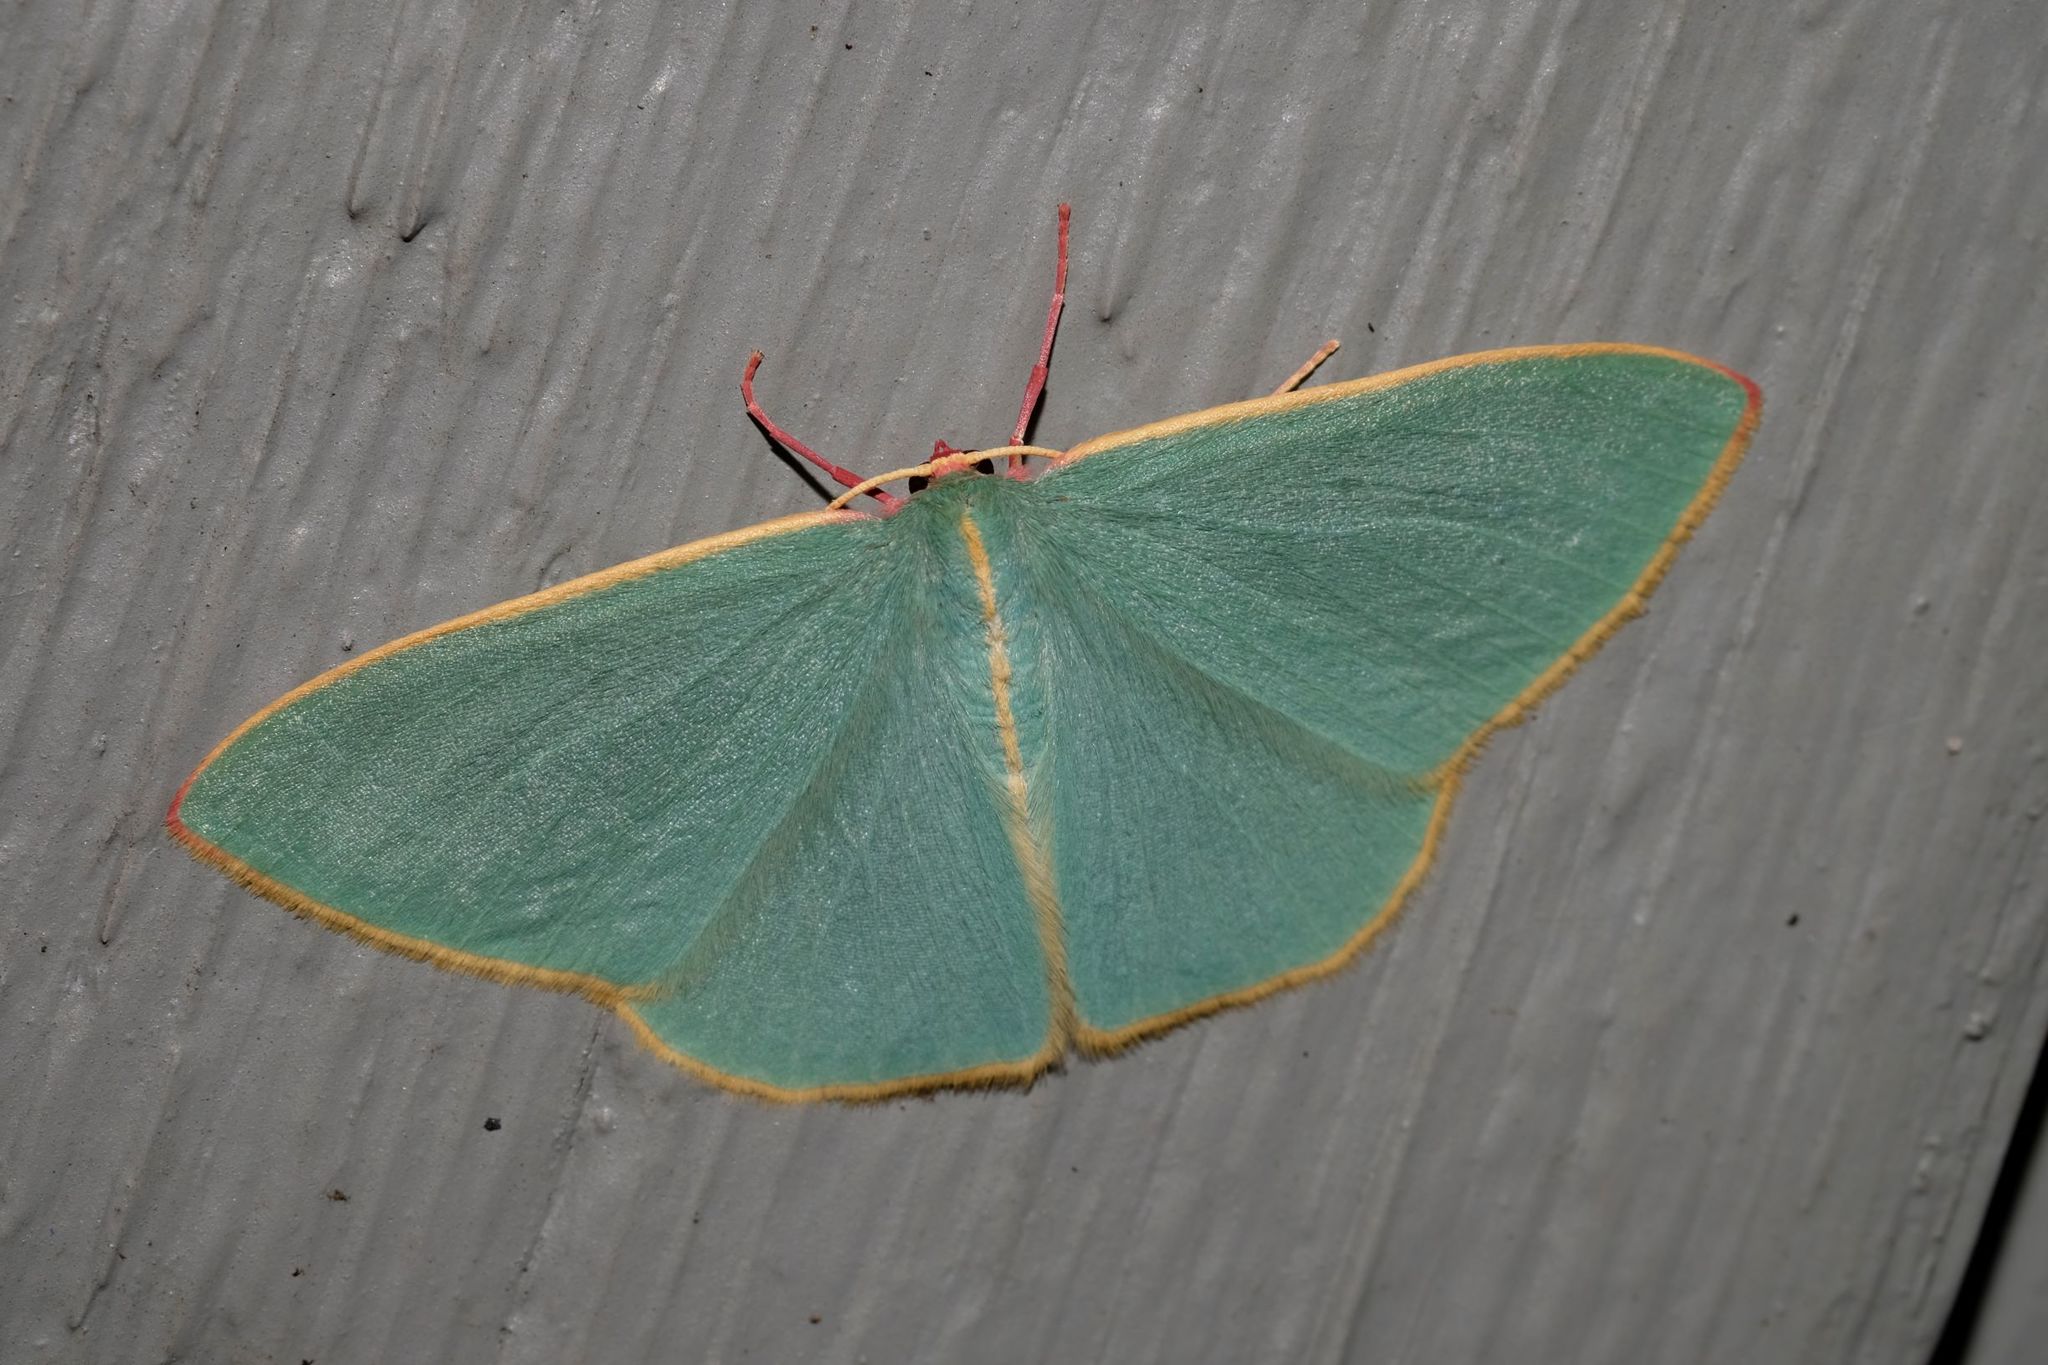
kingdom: Animalia
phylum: Arthropoda
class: Insecta
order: Lepidoptera
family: Geometridae
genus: Chlorocoma
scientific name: Chlorocoma
